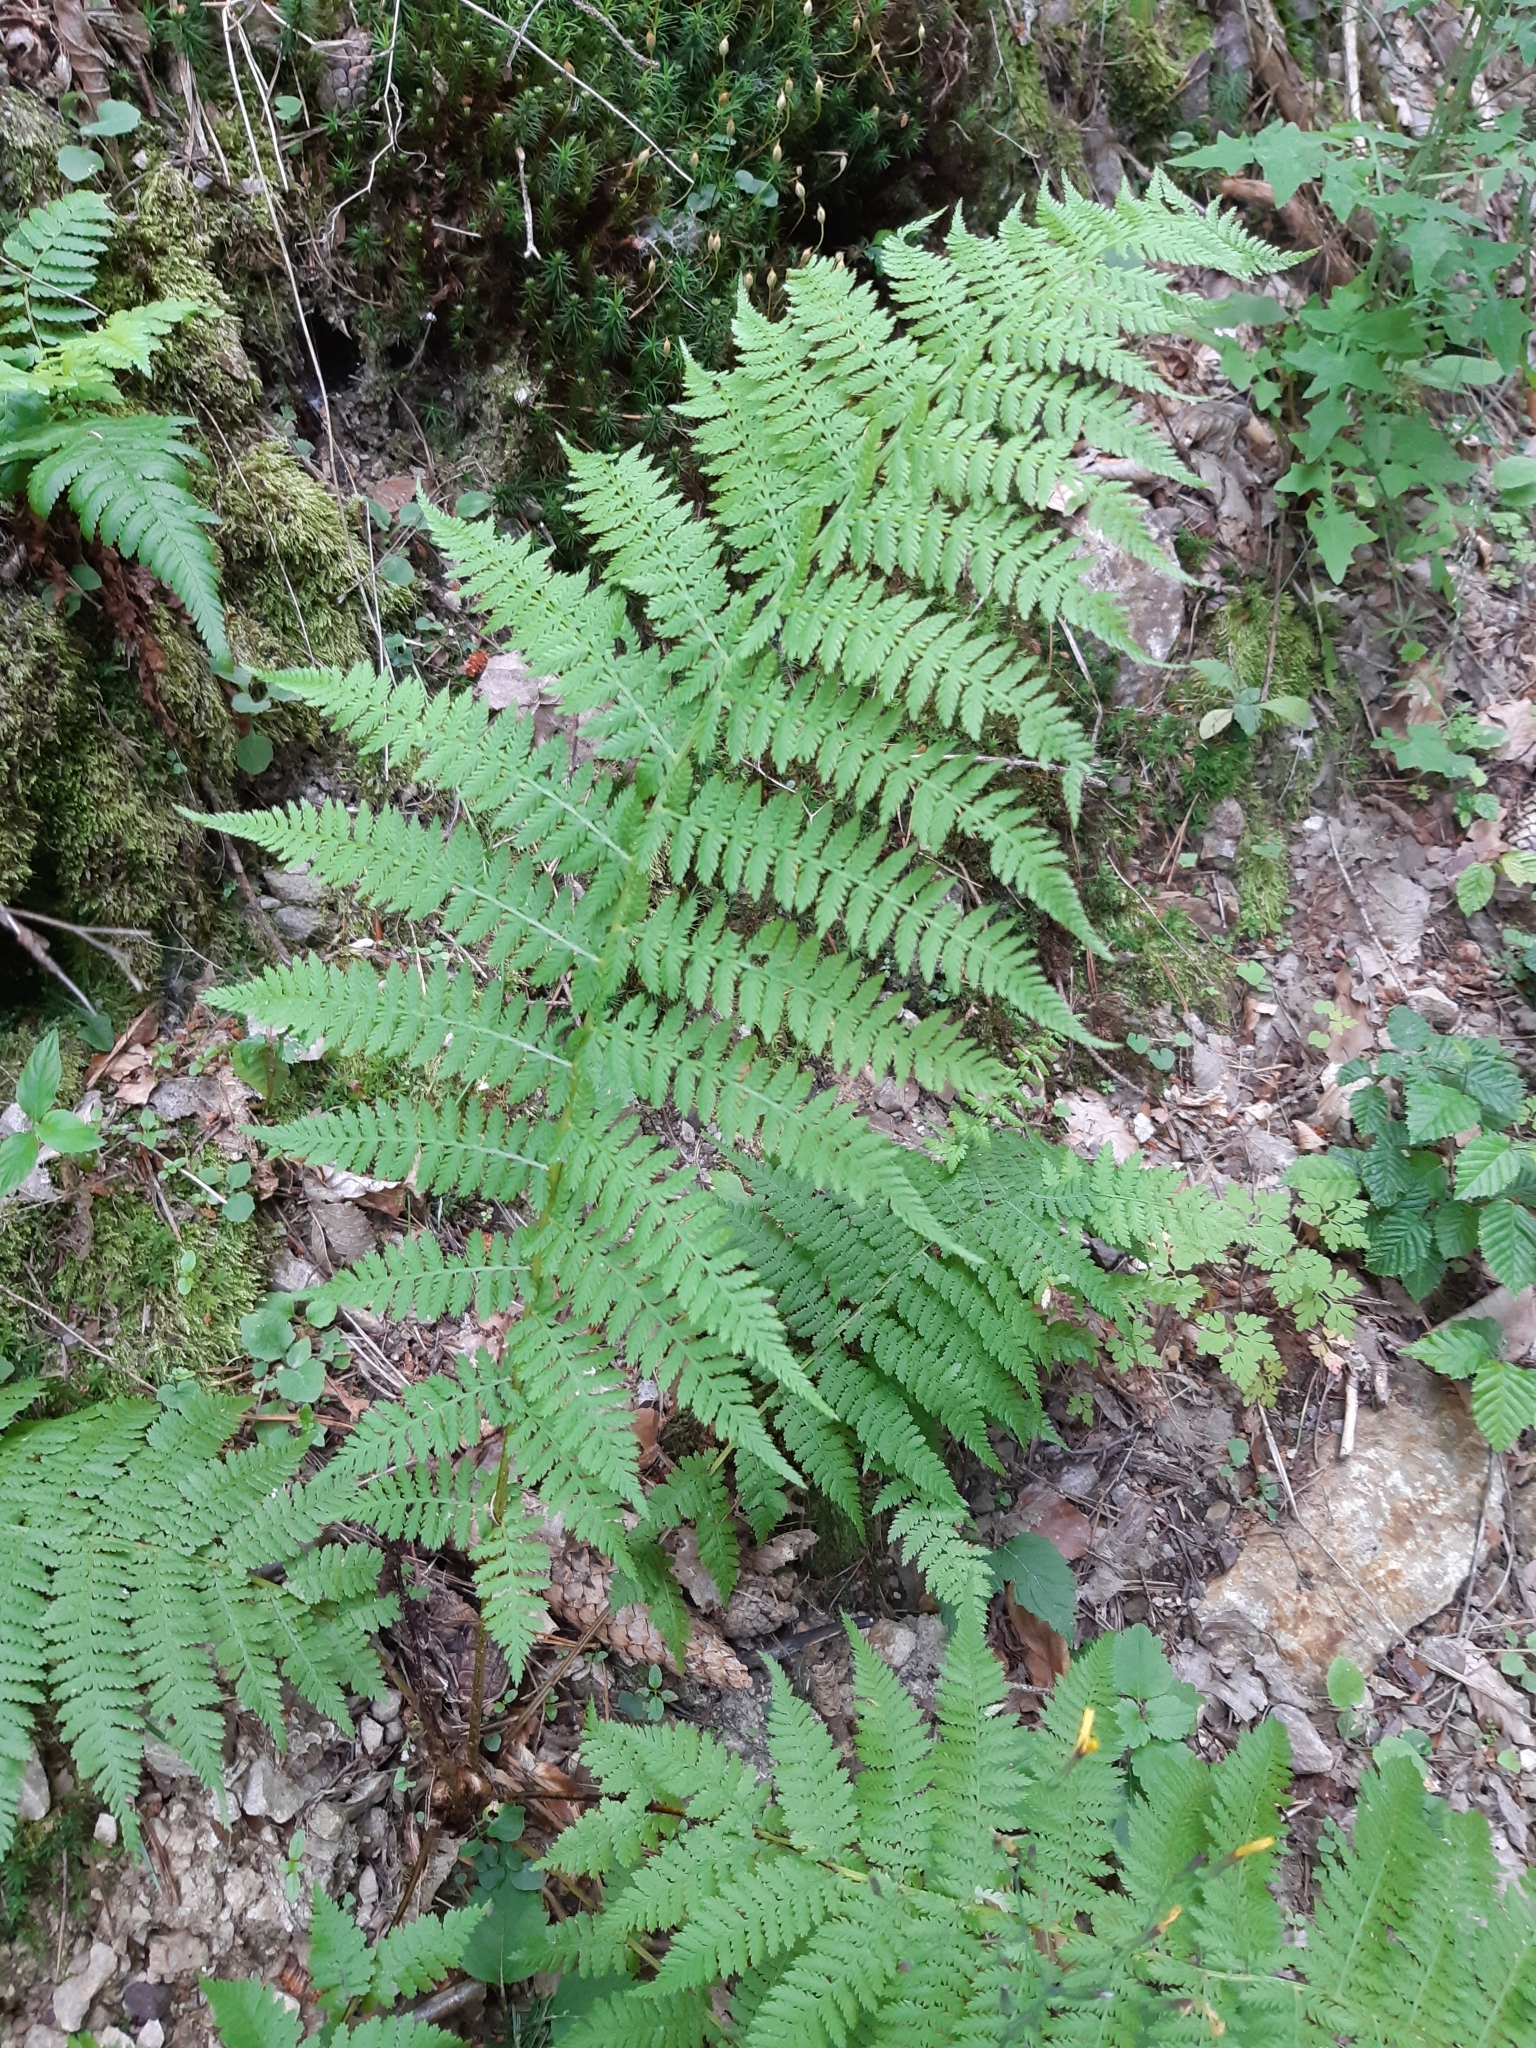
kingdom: Plantae
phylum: Tracheophyta
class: Polypodiopsida
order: Polypodiales
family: Athyriaceae
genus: Athyrium
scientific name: Athyrium filix-femina
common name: Lady fern
